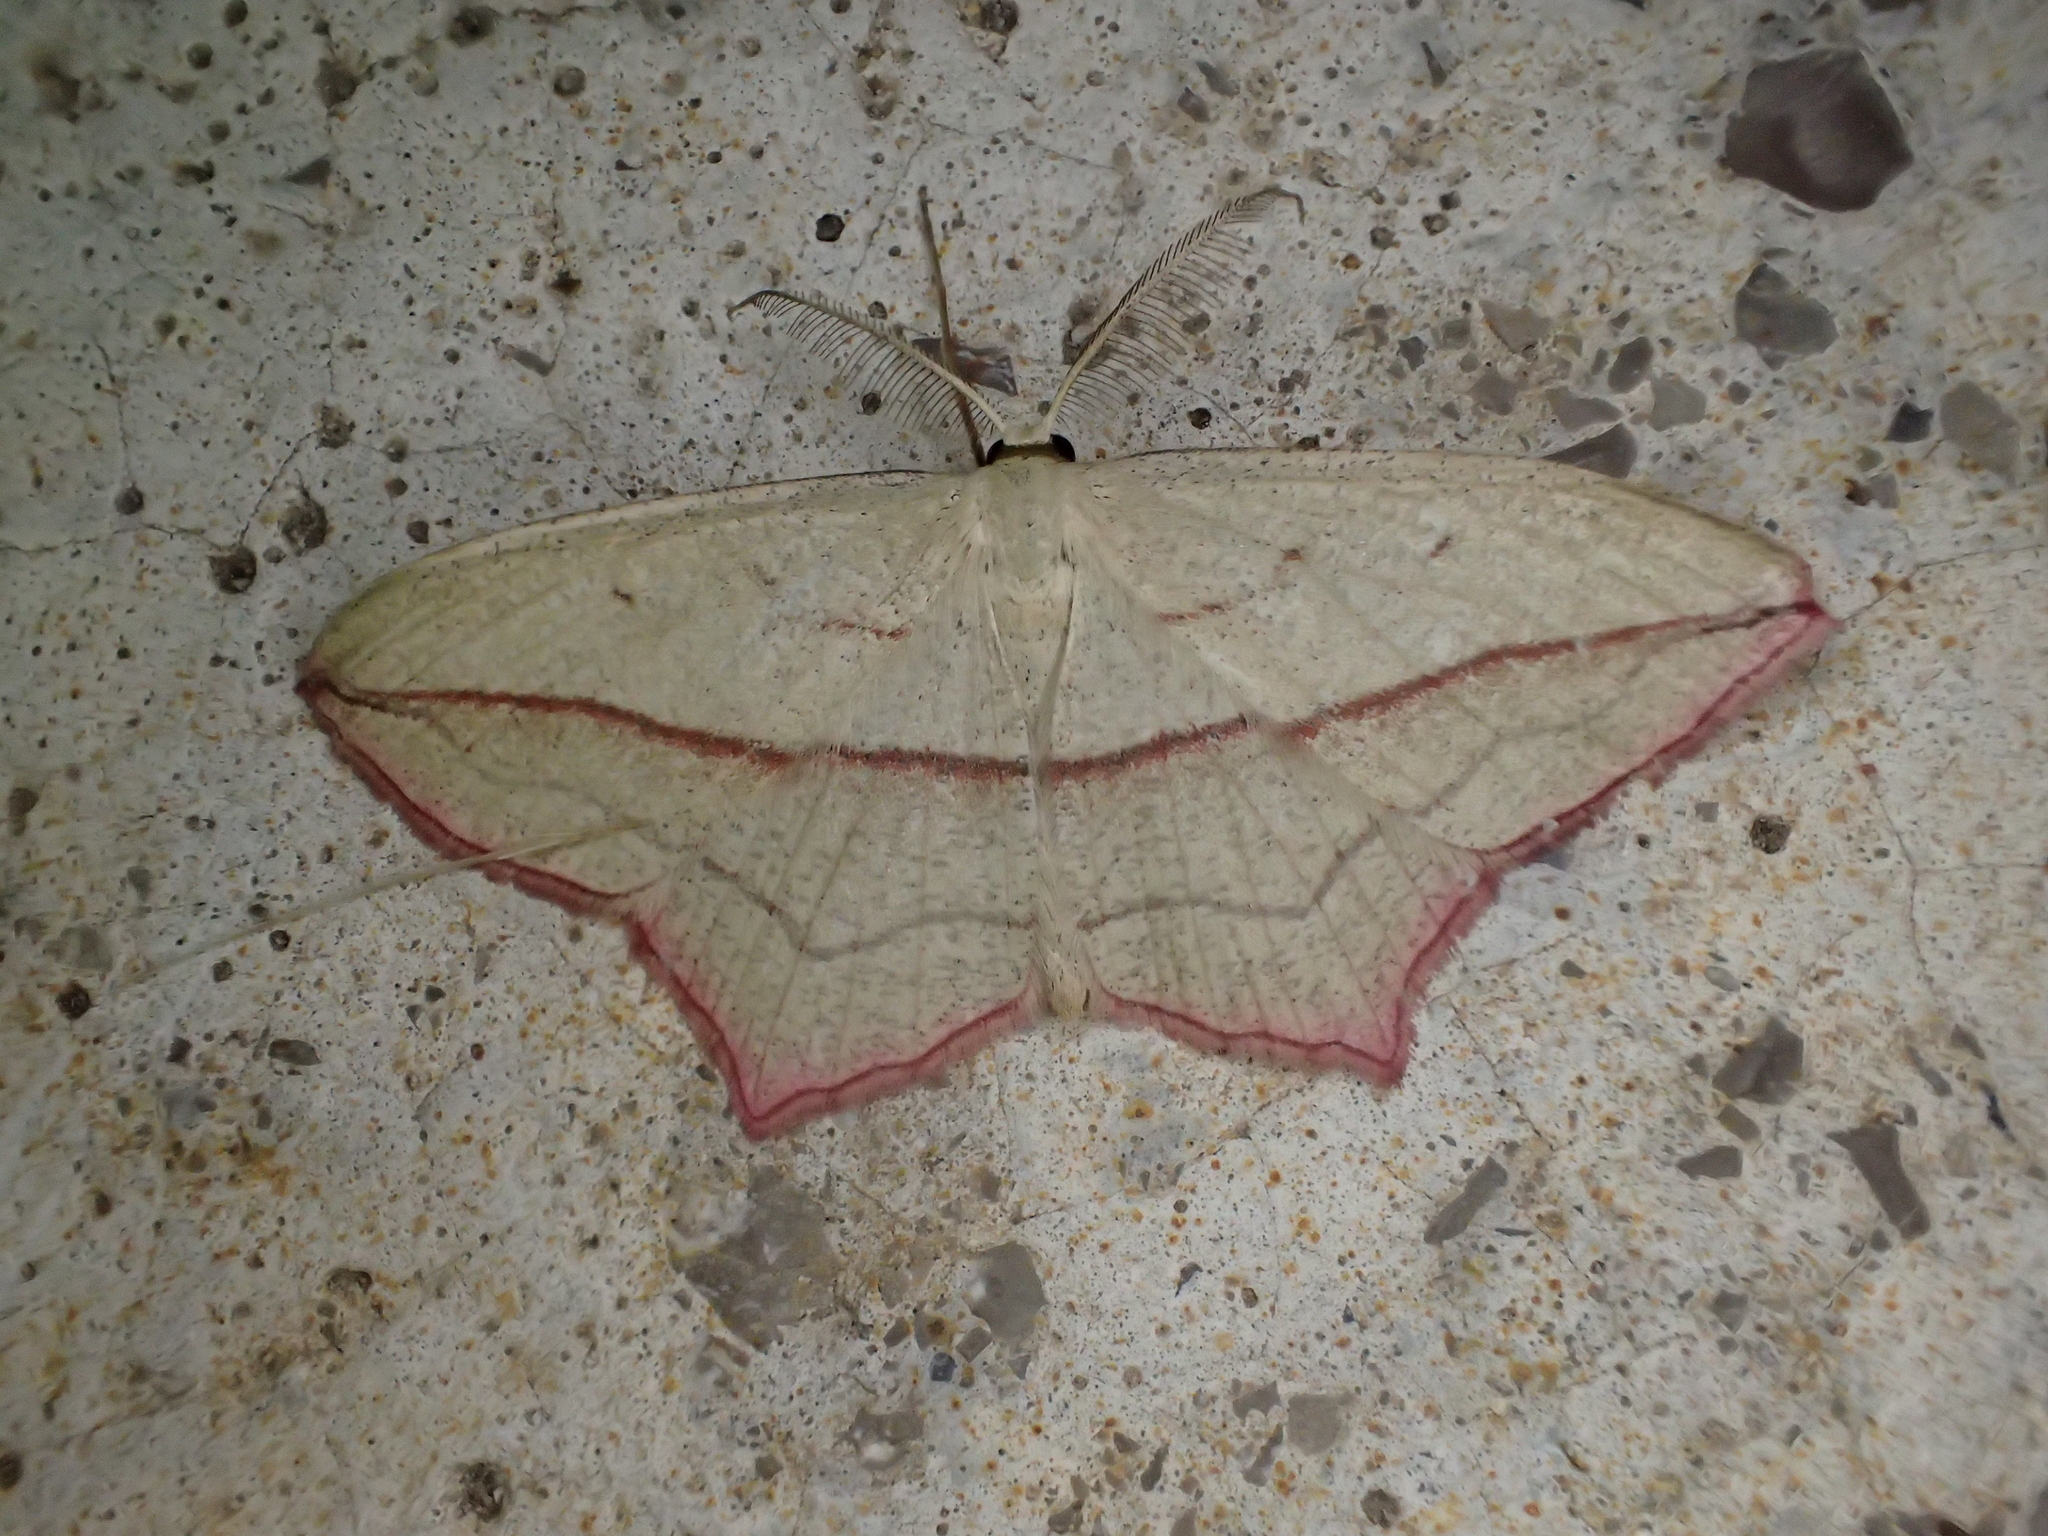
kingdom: Animalia
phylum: Arthropoda
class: Insecta
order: Lepidoptera
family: Geometridae
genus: Timandra
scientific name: Timandra comae
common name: Blood-vein
